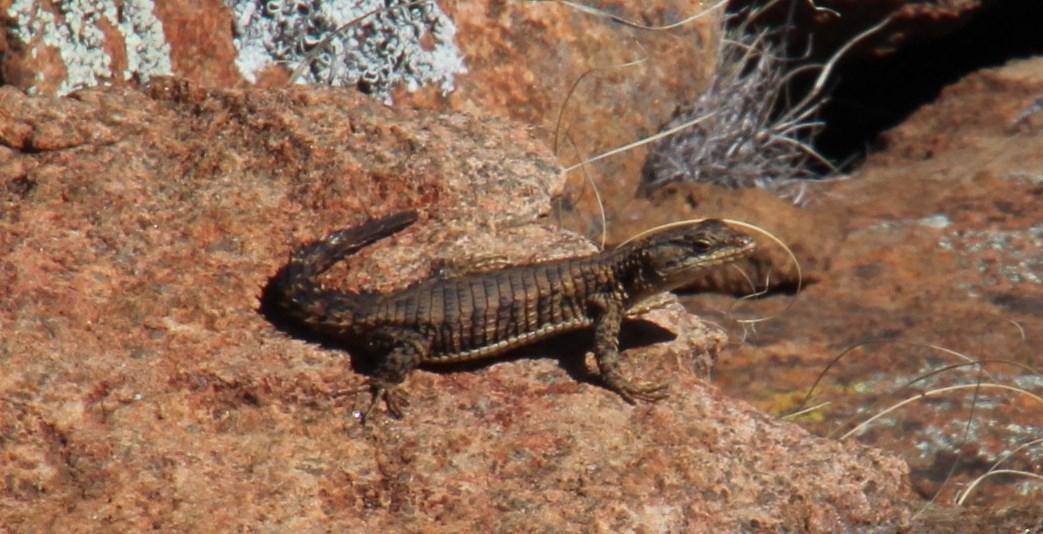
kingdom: Animalia
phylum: Chordata
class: Squamata
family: Cordylidae
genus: Cordylus
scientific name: Cordylus cordylus
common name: Cape girdled lizard
